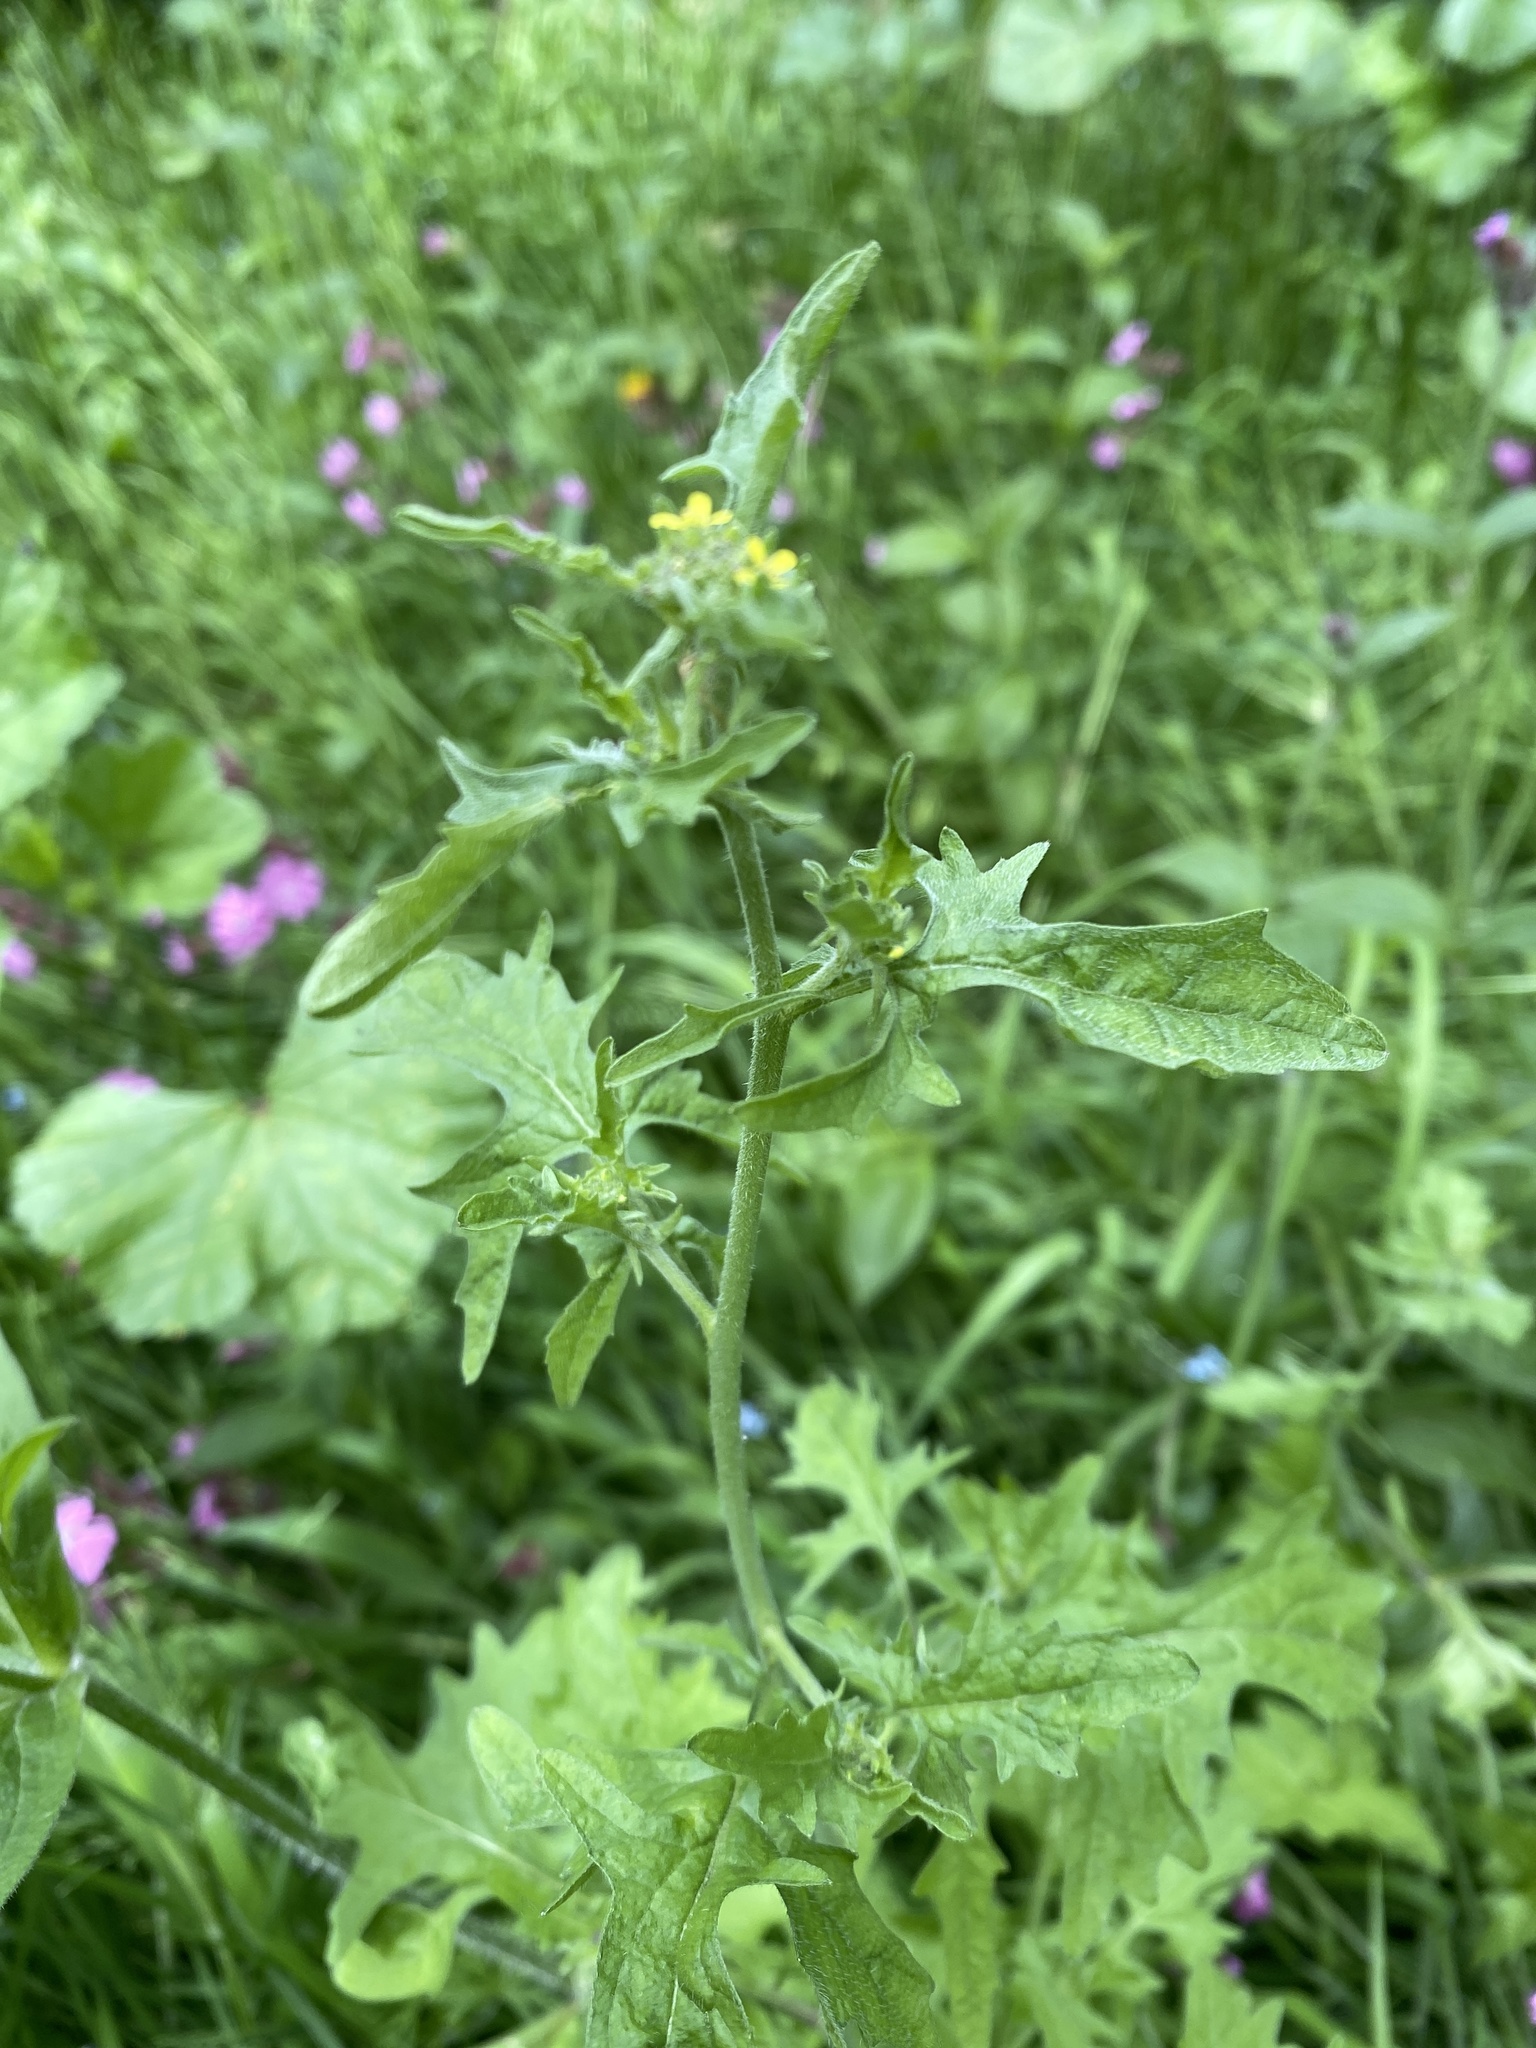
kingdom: Plantae
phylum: Tracheophyta
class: Magnoliopsida
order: Brassicales
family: Brassicaceae
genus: Sisymbrium
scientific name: Sisymbrium officinale
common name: Hedge mustard
